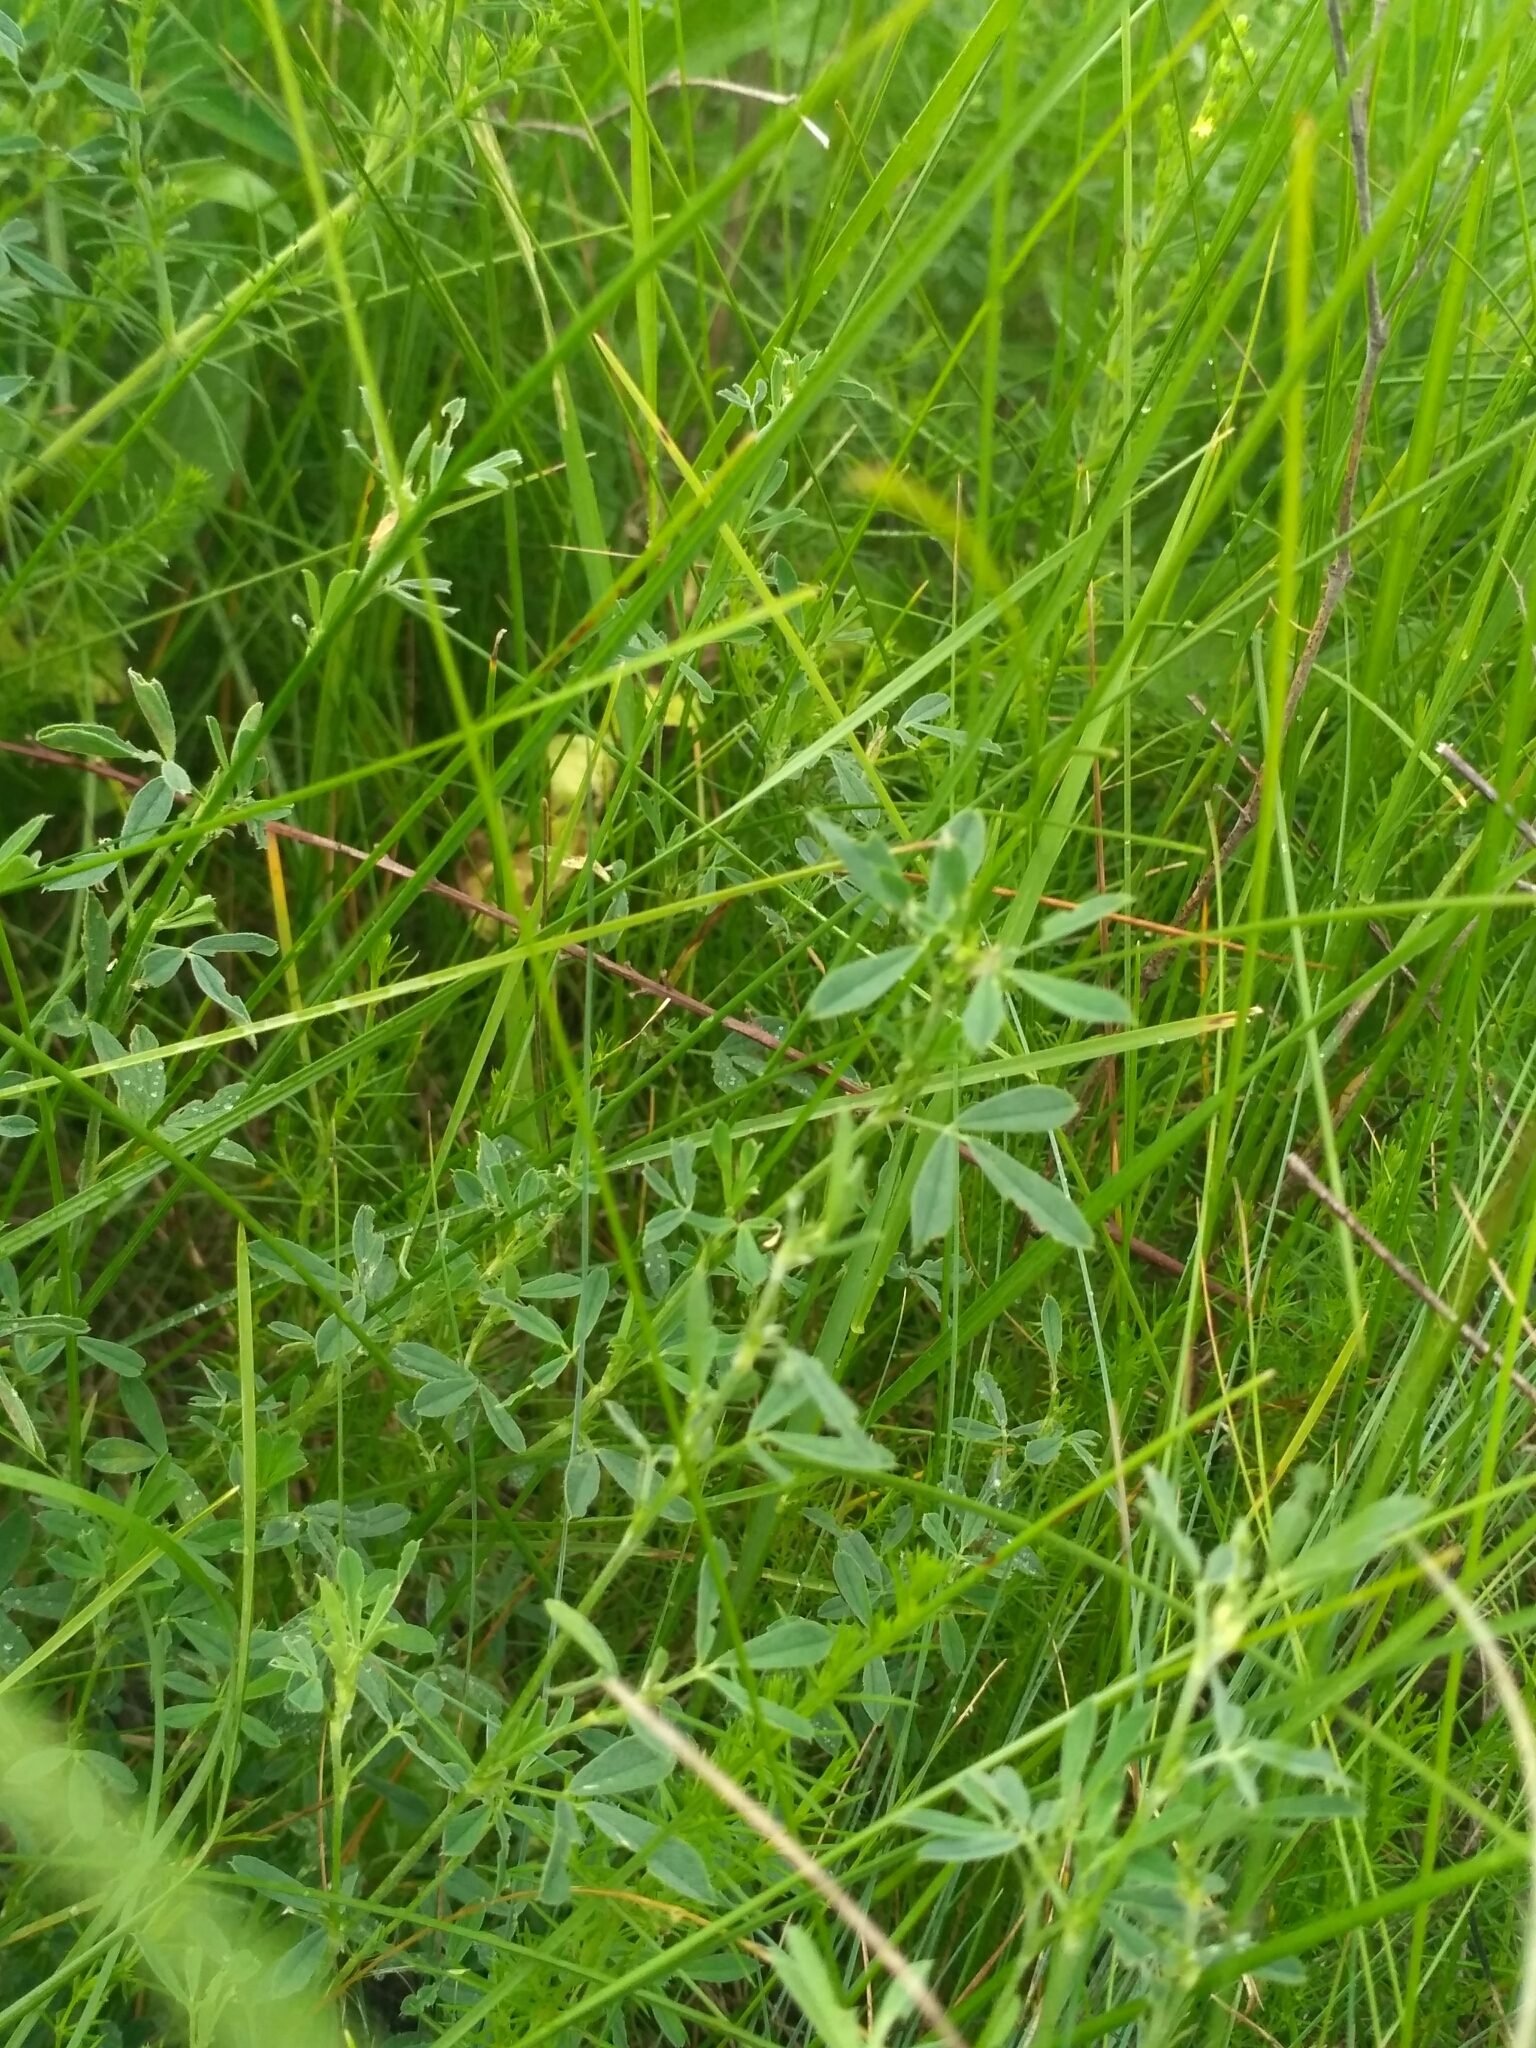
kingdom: Plantae
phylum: Tracheophyta
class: Magnoliopsida
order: Fabales
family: Fabaceae
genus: Medicago
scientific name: Medicago falcata
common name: Sickle medick
